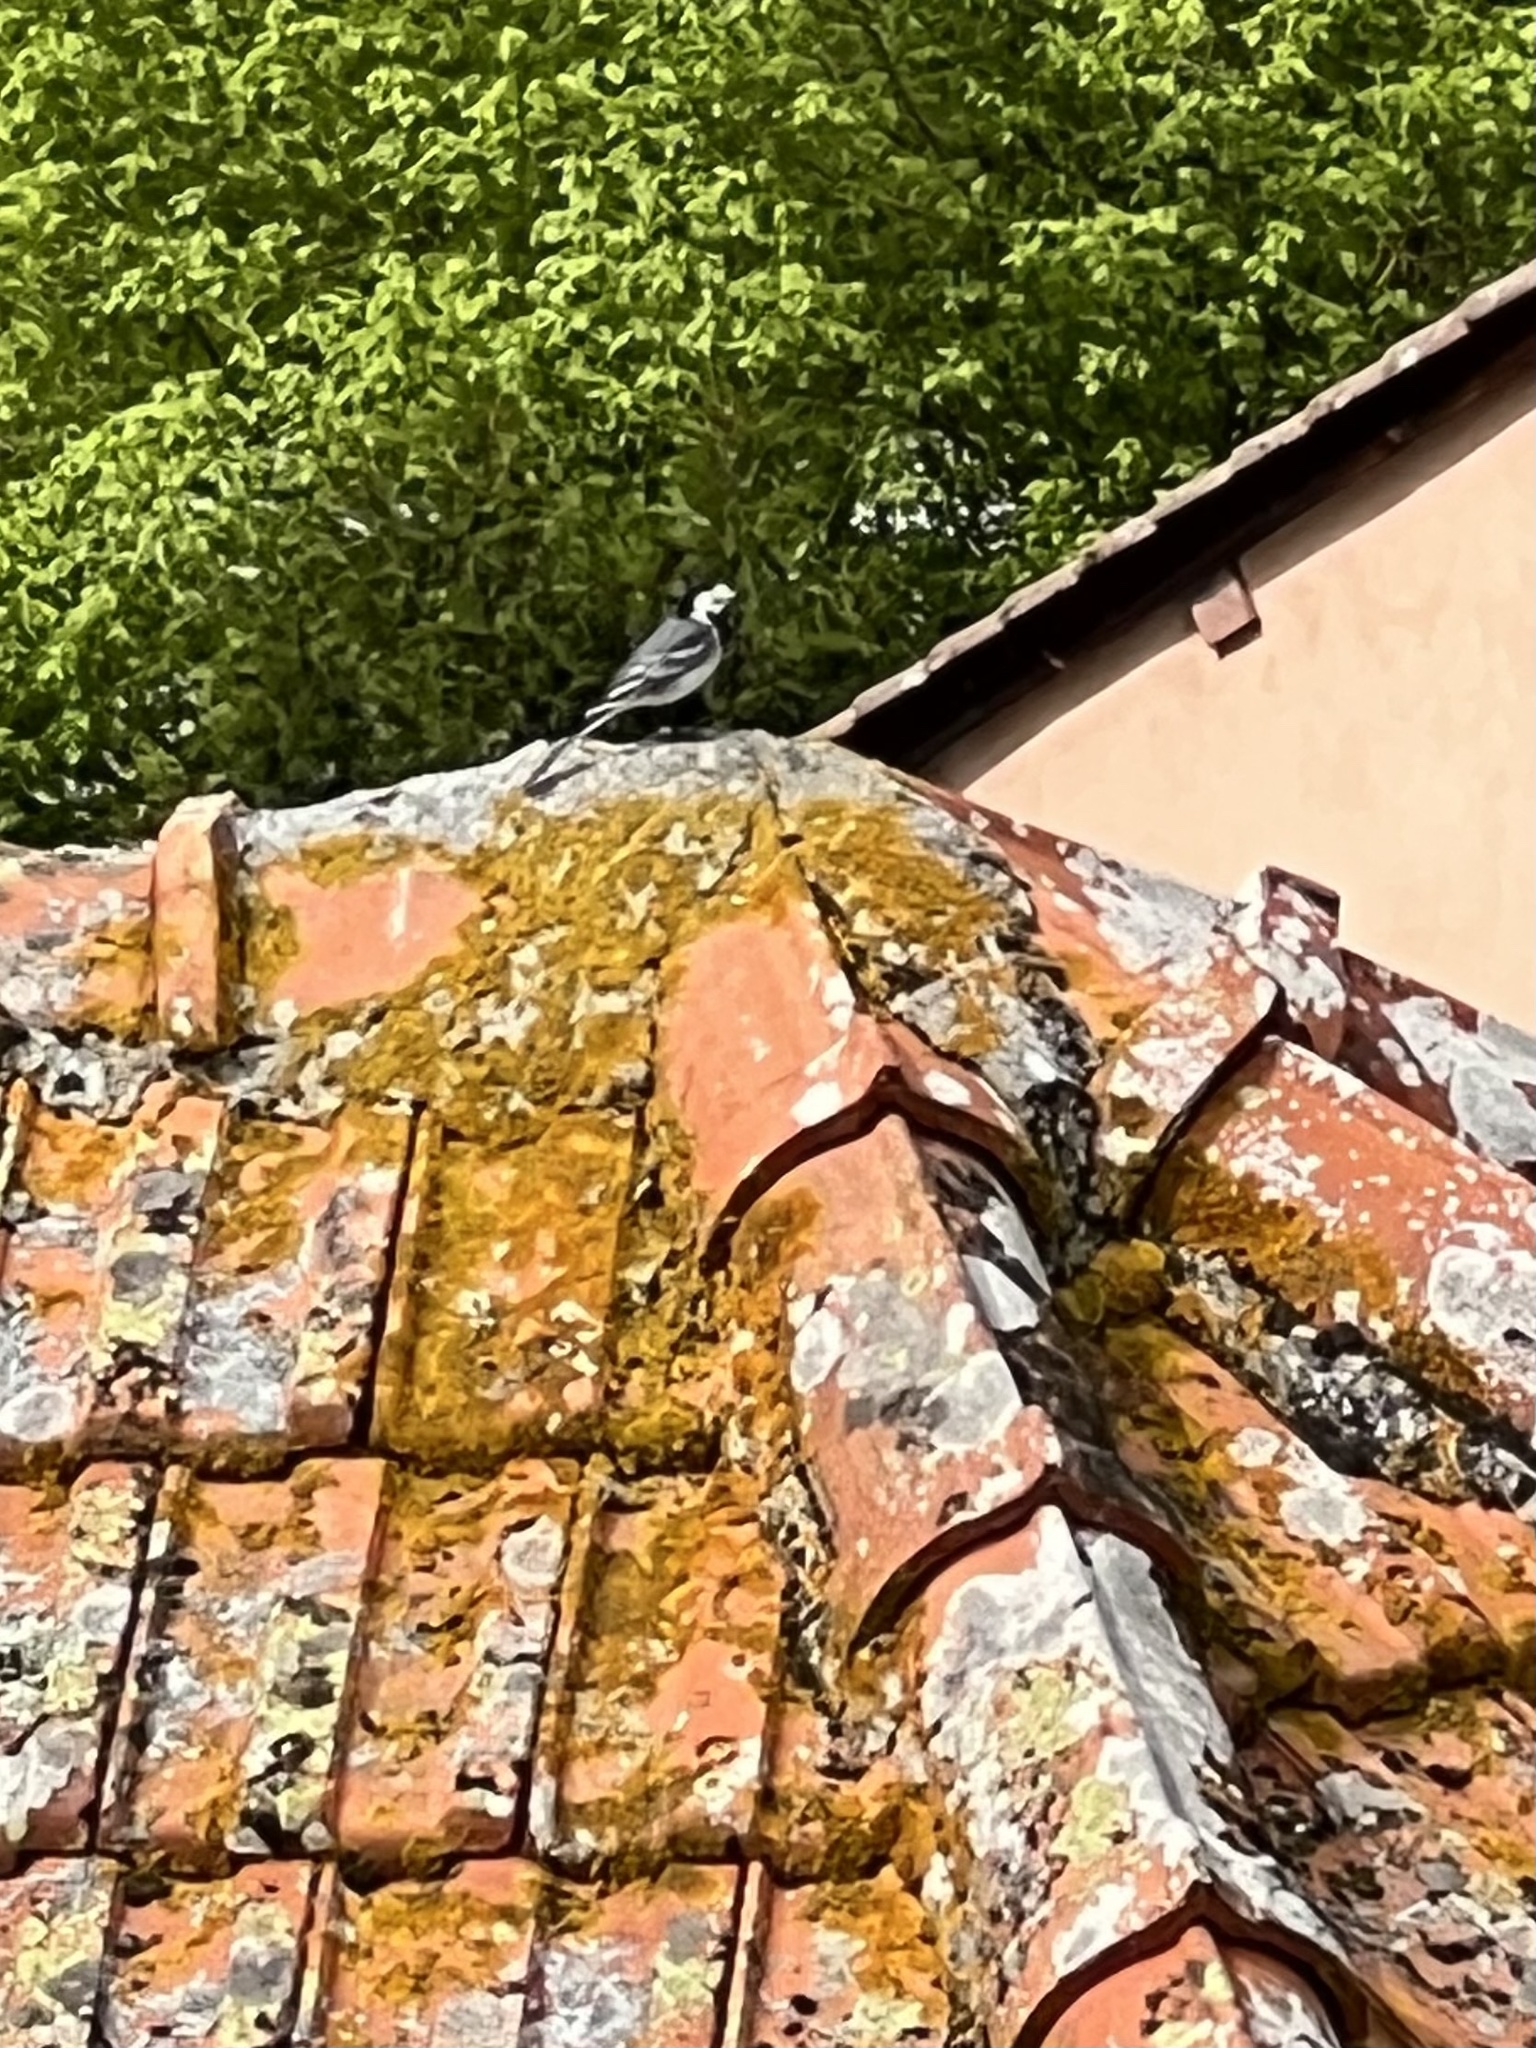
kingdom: Animalia
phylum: Chordata
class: Aves
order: Passeriformes
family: Motacillidae
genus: Motacilla
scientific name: Motacilla alba
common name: White wagtail
